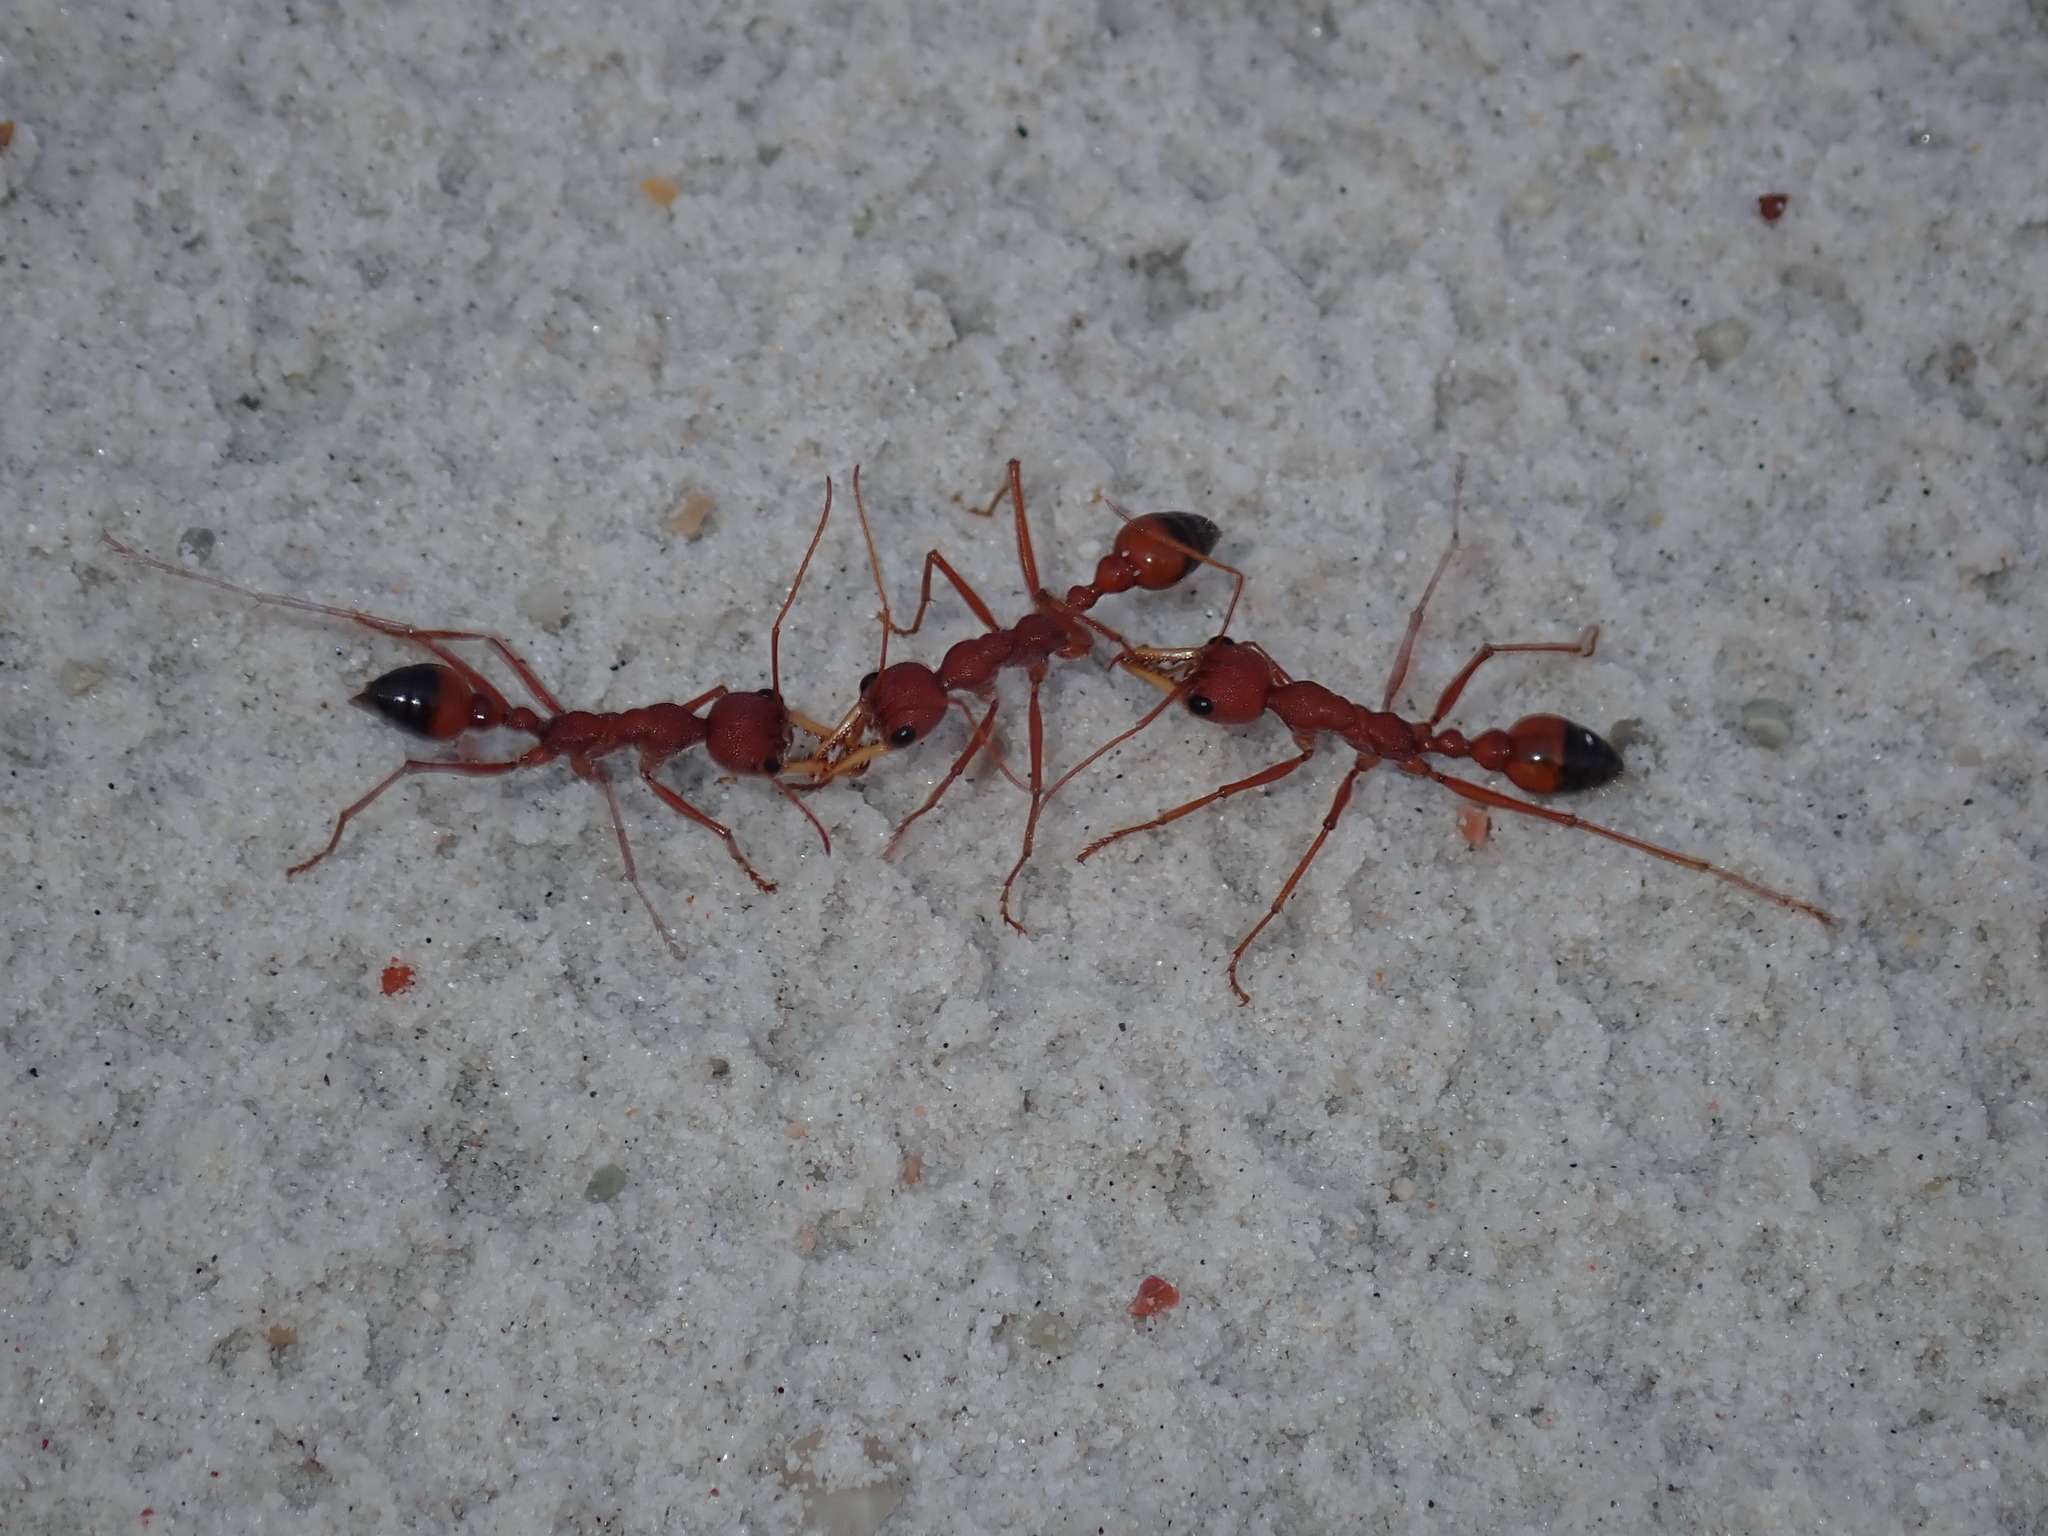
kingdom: Animalia
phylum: Arthropoda
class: Insecta
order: Hymenoptera
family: Formicidae
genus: Myrmecia
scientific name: Myrmecia gulosa
